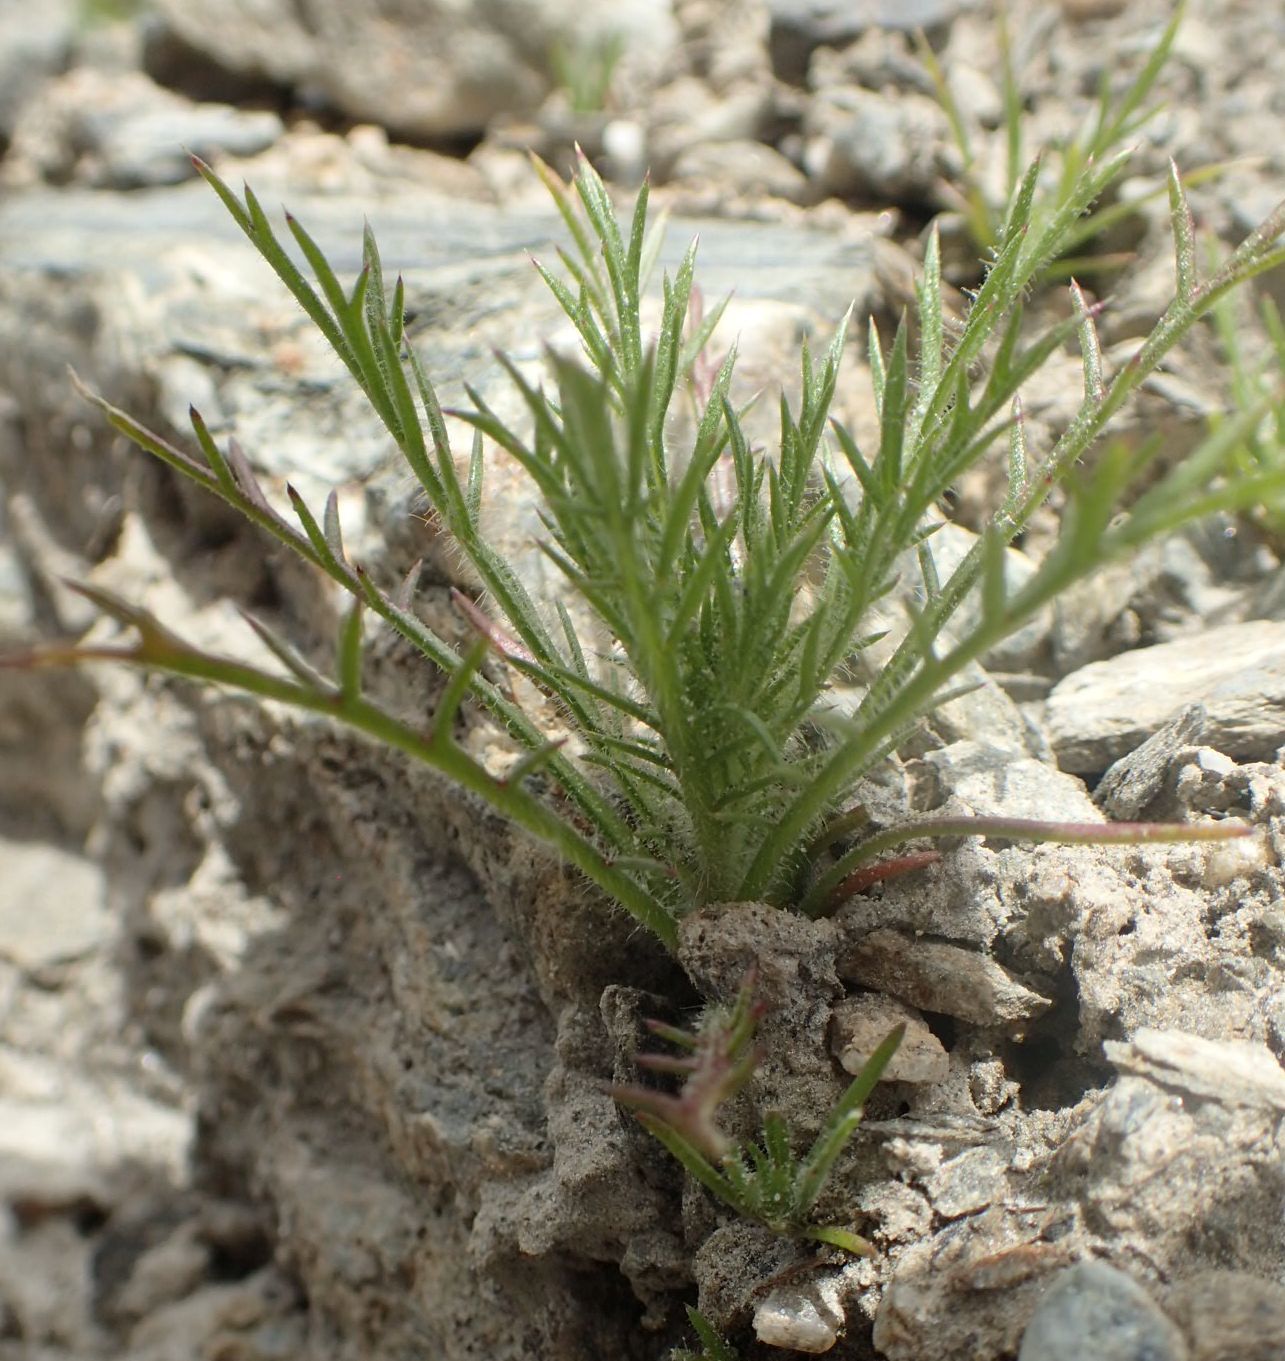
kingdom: Plantae
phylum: Tracheophyta
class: Magnoliopsida
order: Ericales
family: Polemoniaceae
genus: Navarretia
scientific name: Navarretia squarrosa
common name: Skunkweed
